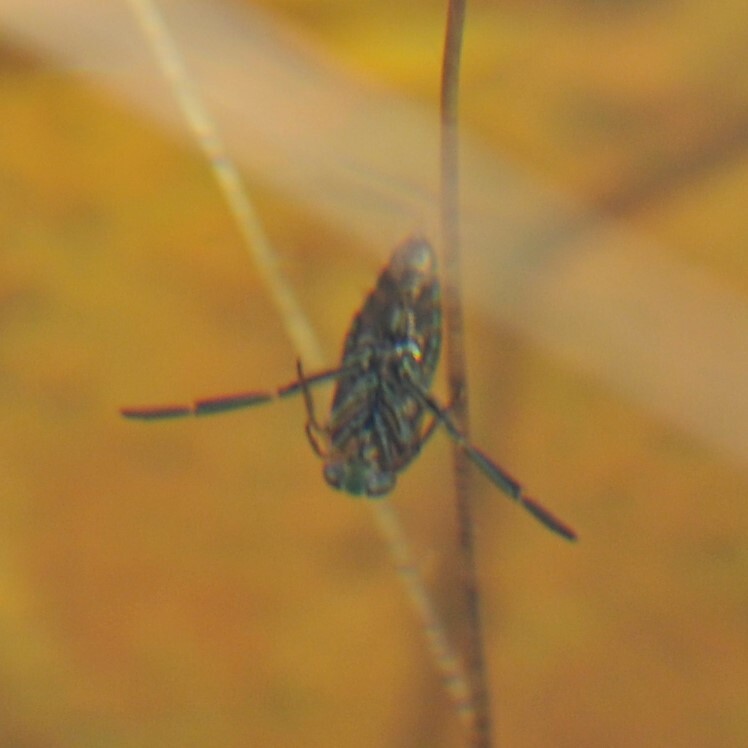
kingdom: Animalia
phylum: Arthropoda
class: Insecta
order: Hemiptera
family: Notonectidae
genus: Notonecta
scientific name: Notonecta
